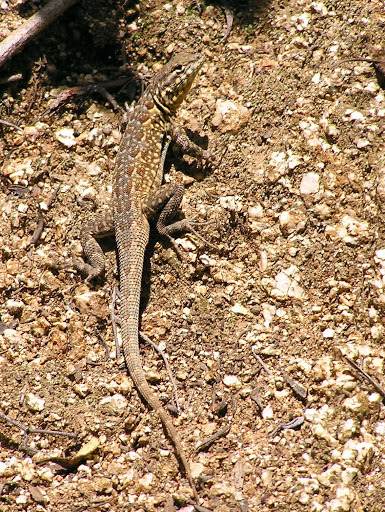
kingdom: Animalia
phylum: Chordata
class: Squamata
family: Phrynosomatidae
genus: Uta
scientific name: Uta stansburiana
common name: Side-blotched lizard
